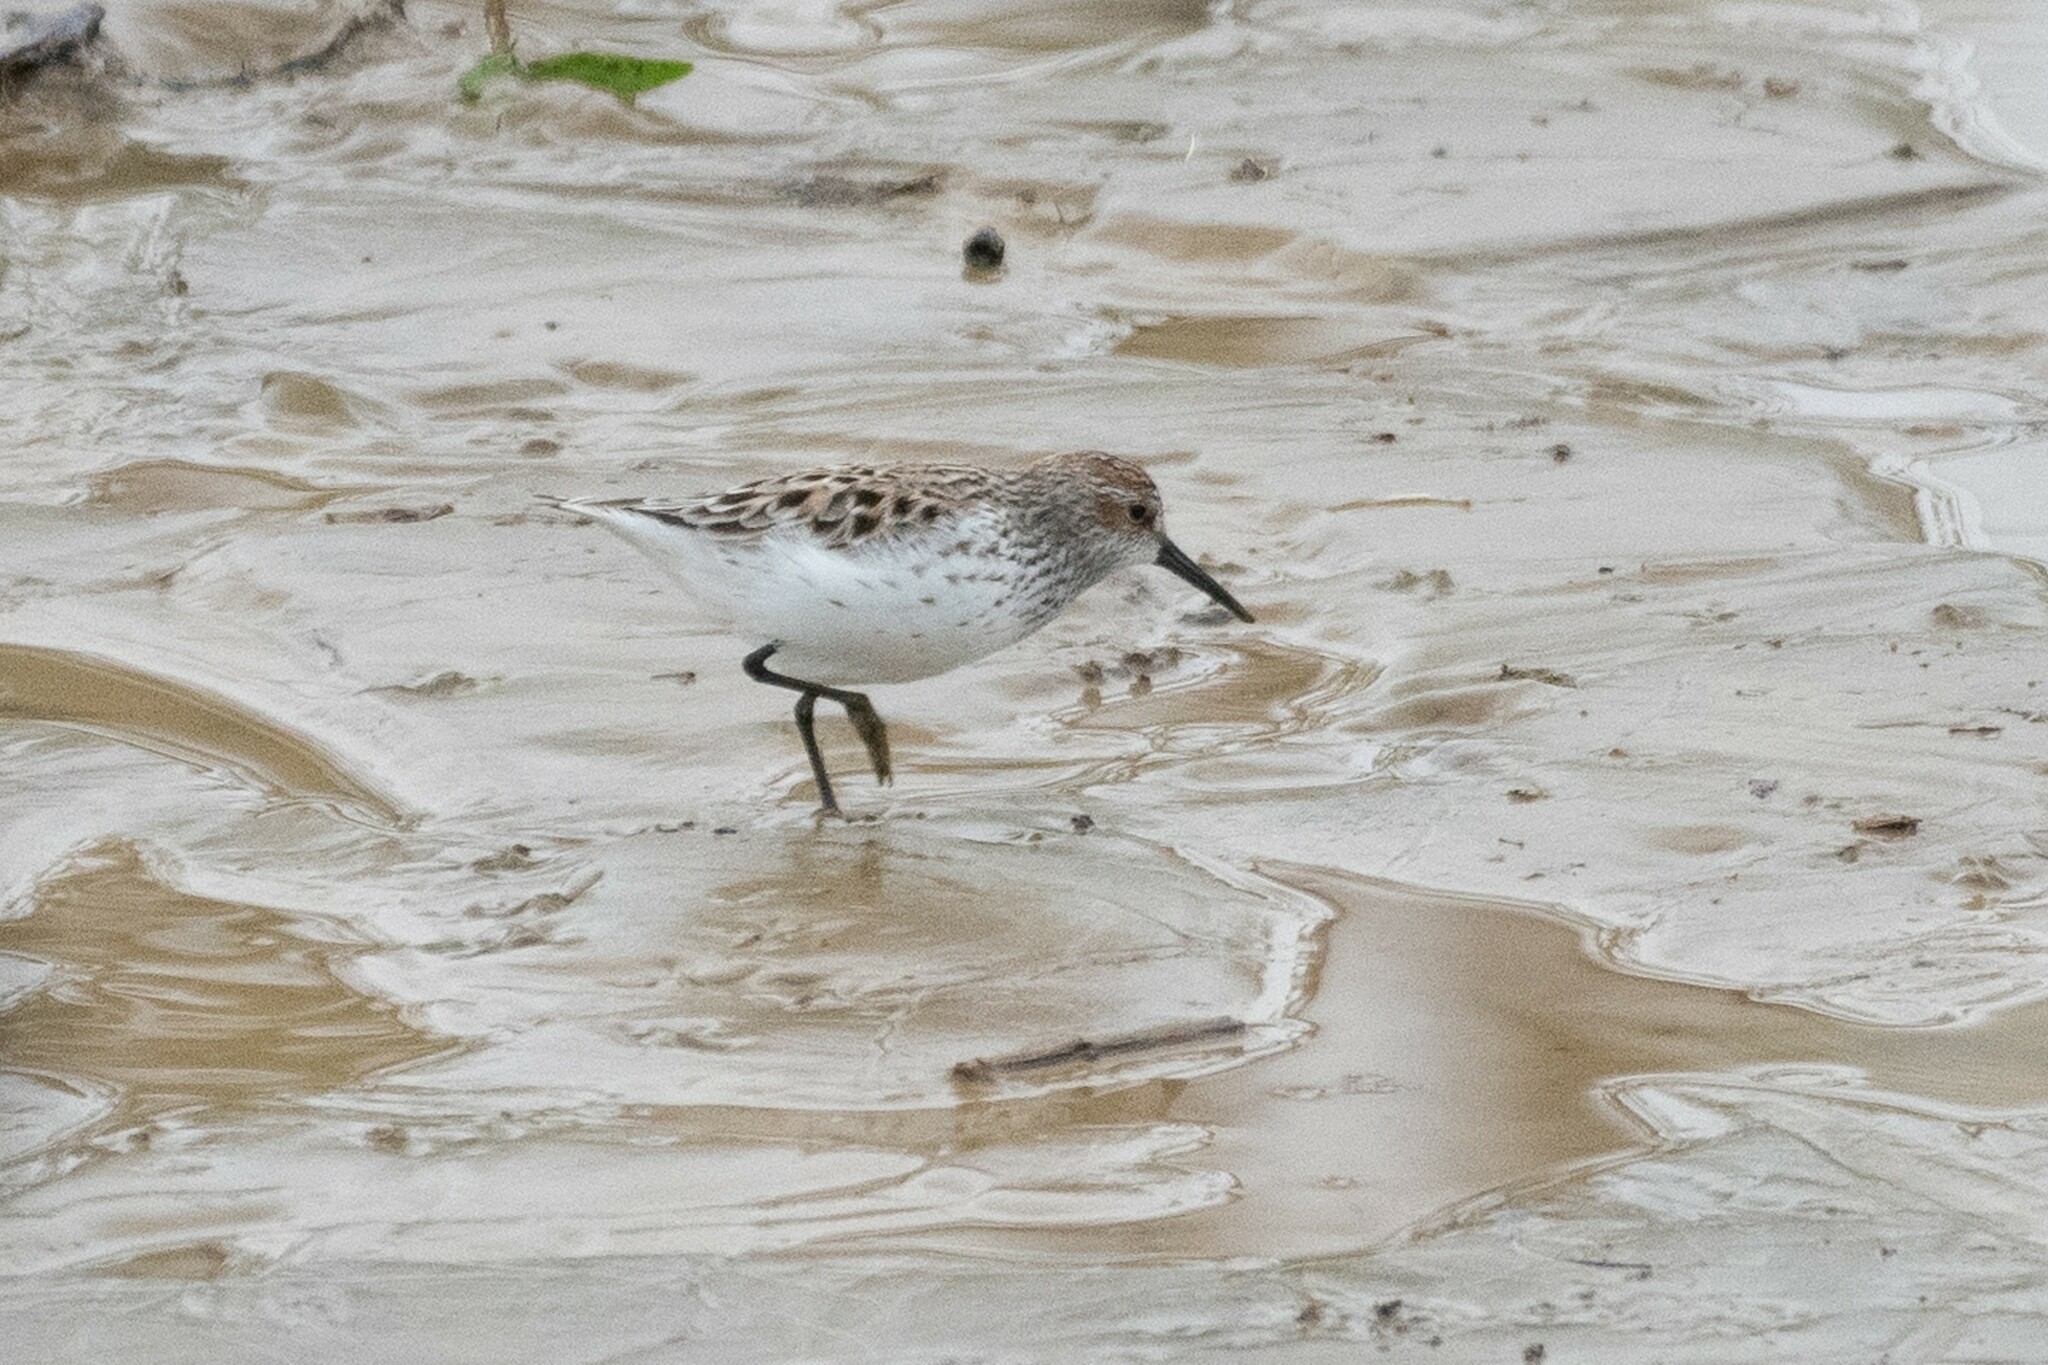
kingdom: Animalia
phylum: Chordata
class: Aves
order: Charadriiformes
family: Scolopacidae
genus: Calidris
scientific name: Calidris mauri
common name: Western sandpiper
